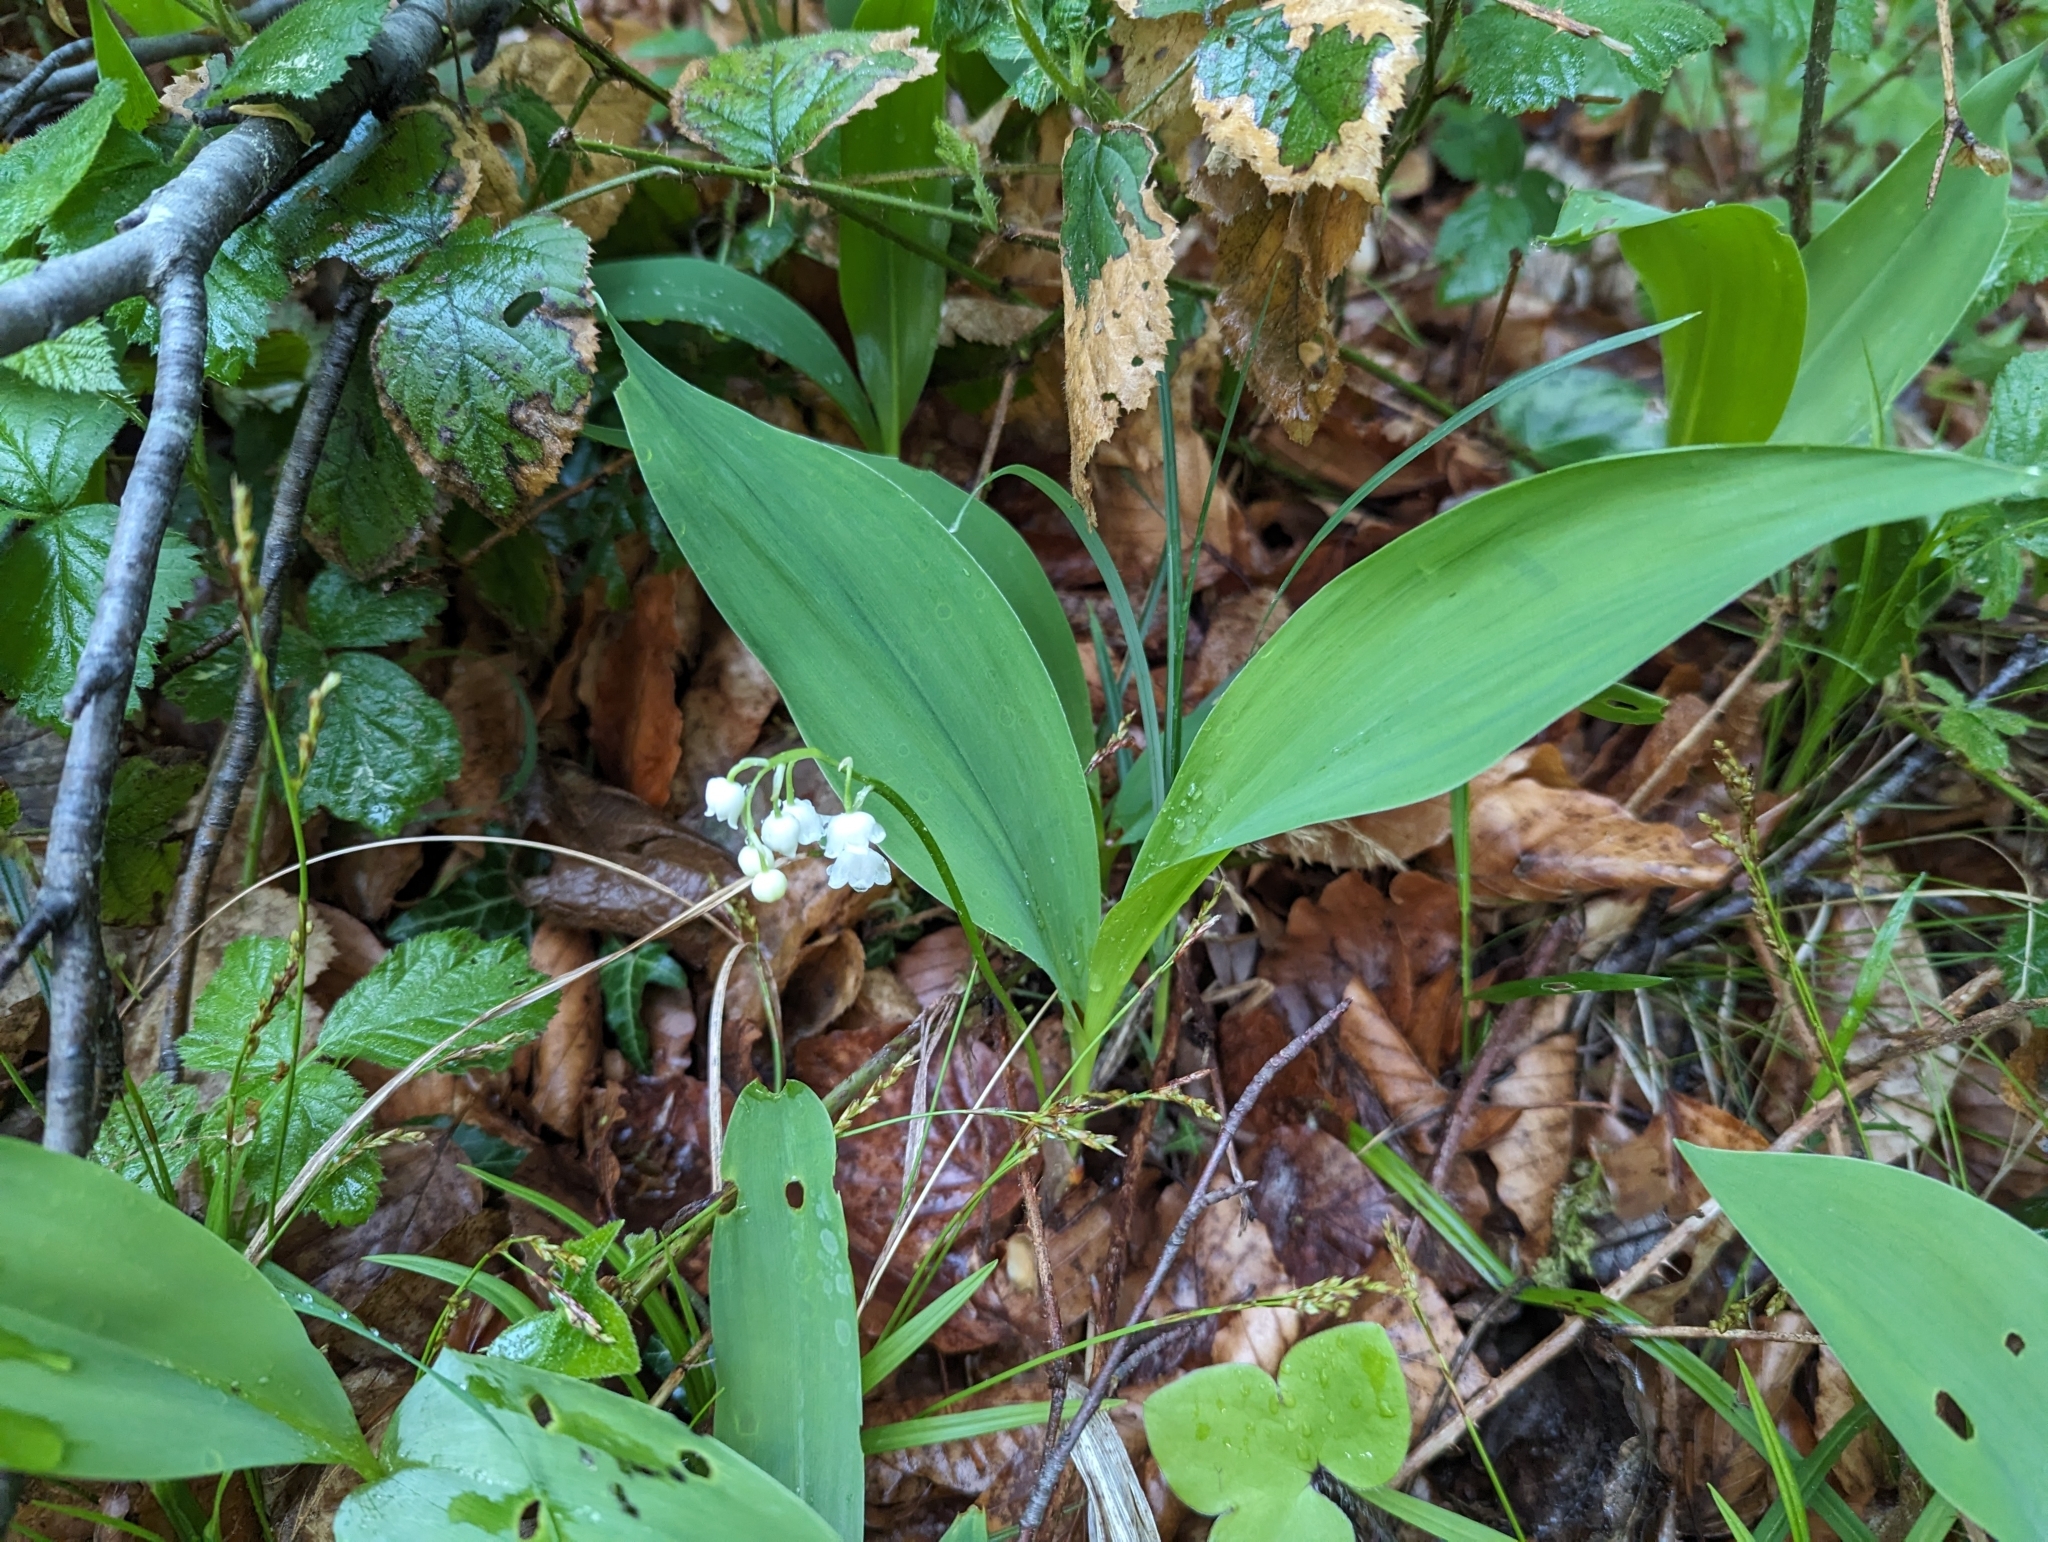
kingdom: Plantae
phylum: Tracheophyta
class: Liliopsida
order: Asparagales
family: Asparagaceae
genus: Convallaria
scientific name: Convallaria majalis
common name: Lily-of-the-valley
